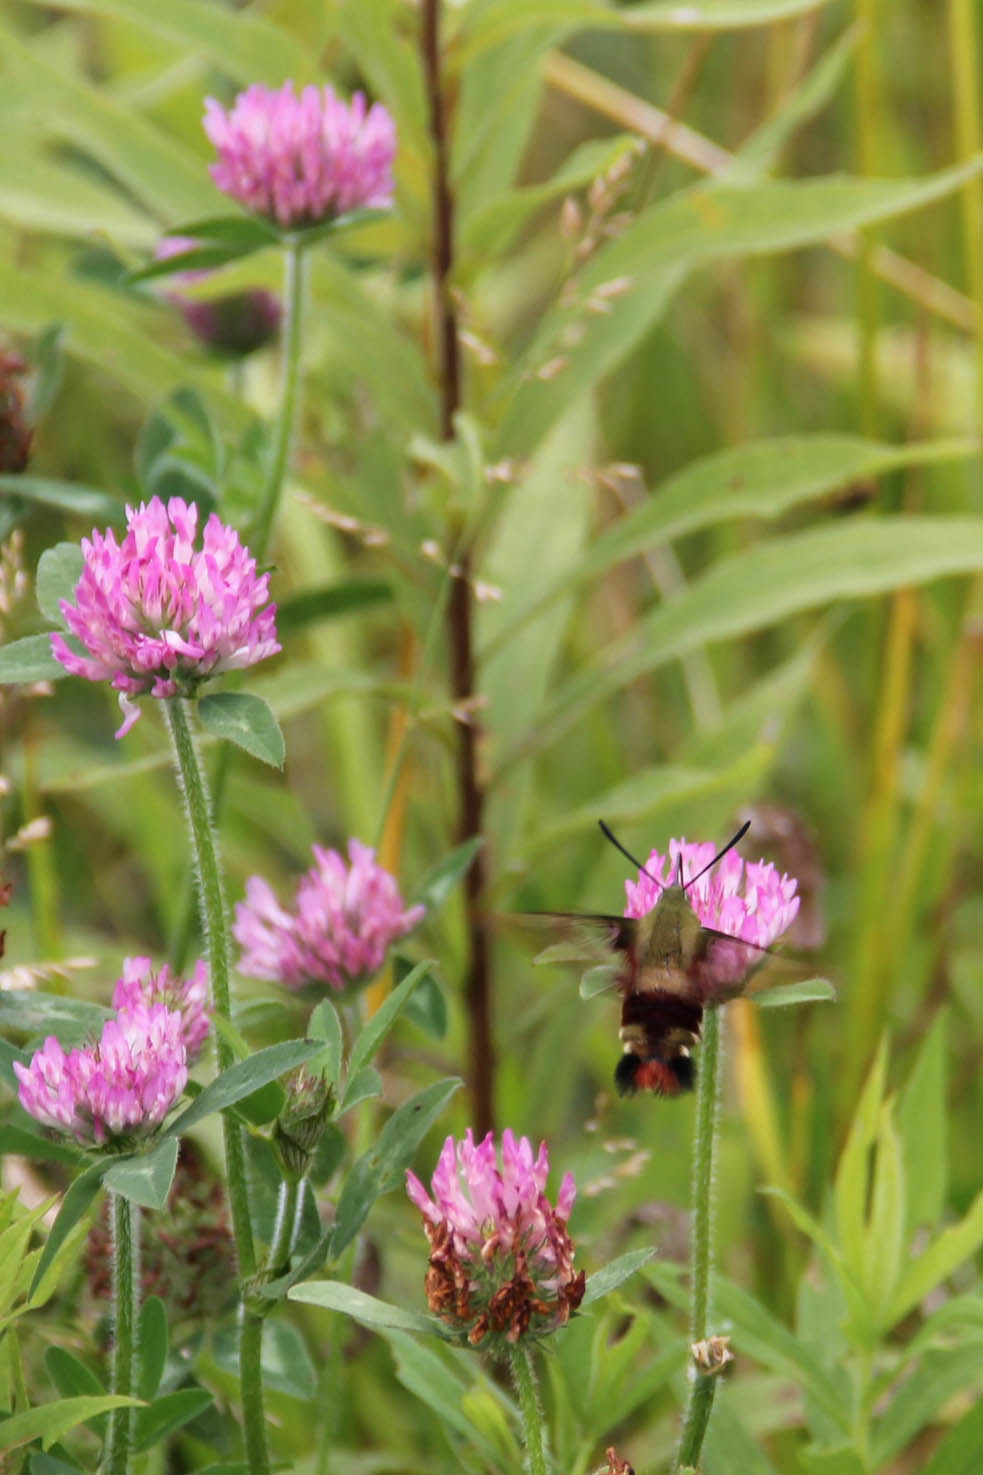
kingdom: Animalia
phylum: Arthropoda
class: Insecta
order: Lepidoptera
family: Sphingidae
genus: Hemaris
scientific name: Hemaris thysbe
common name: Common clear-wing
